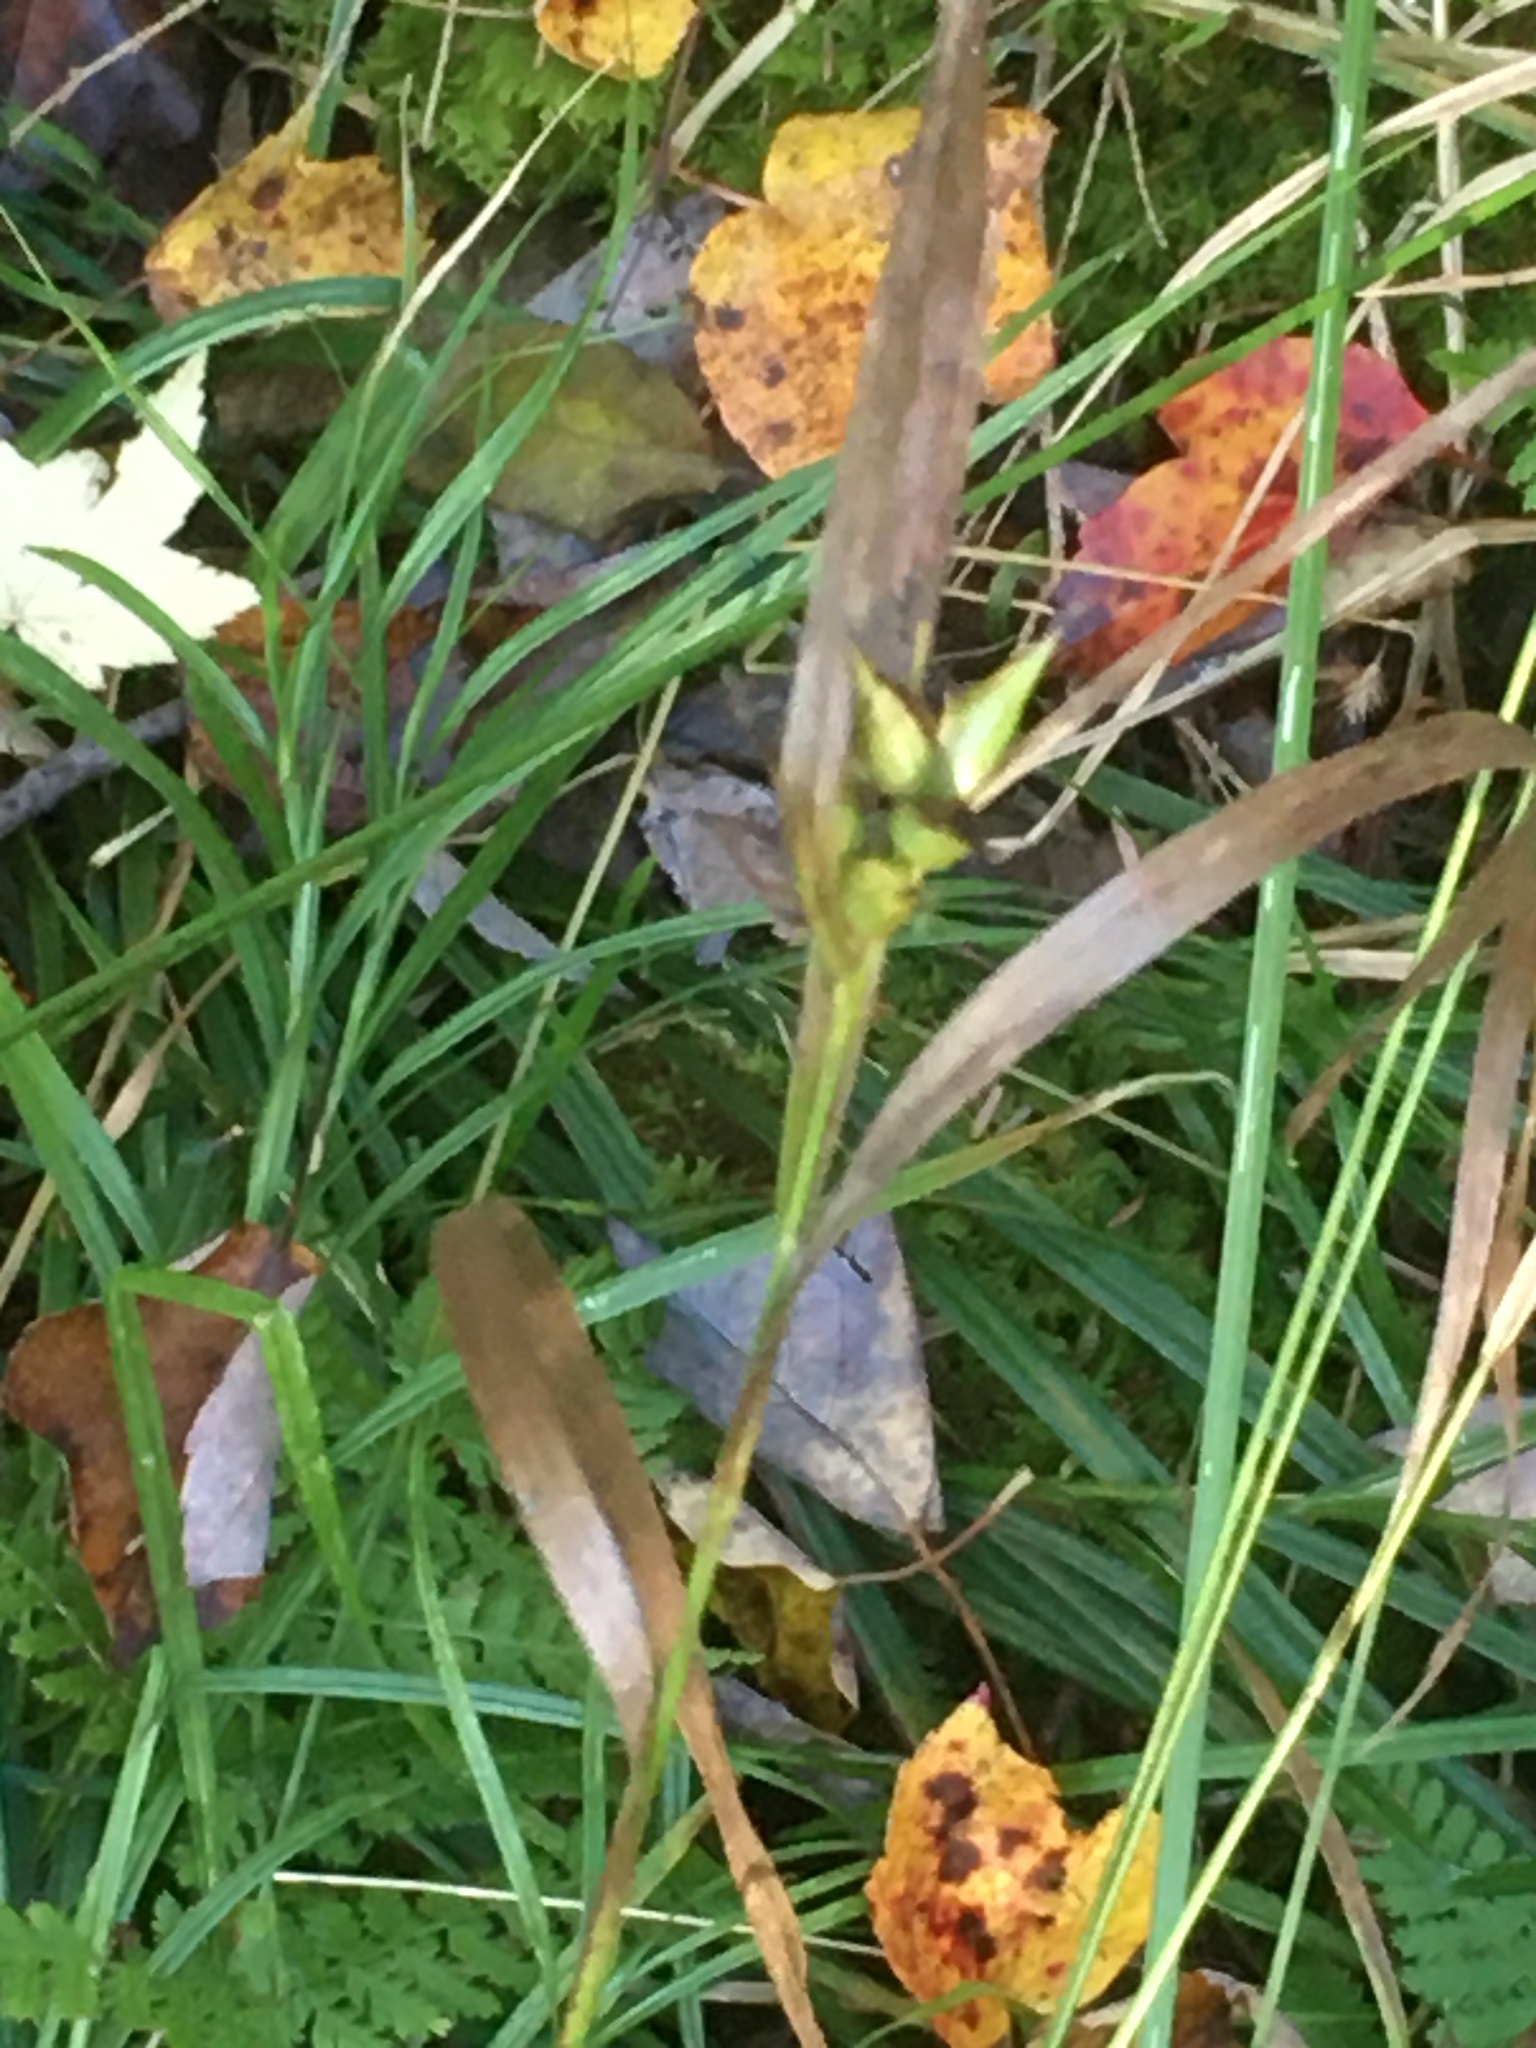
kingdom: Plantae
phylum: Tracheophyta
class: Liliopsida
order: Poales
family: Cyperaceae
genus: Carex
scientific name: Carex intumescens
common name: Greater bladder sedge
